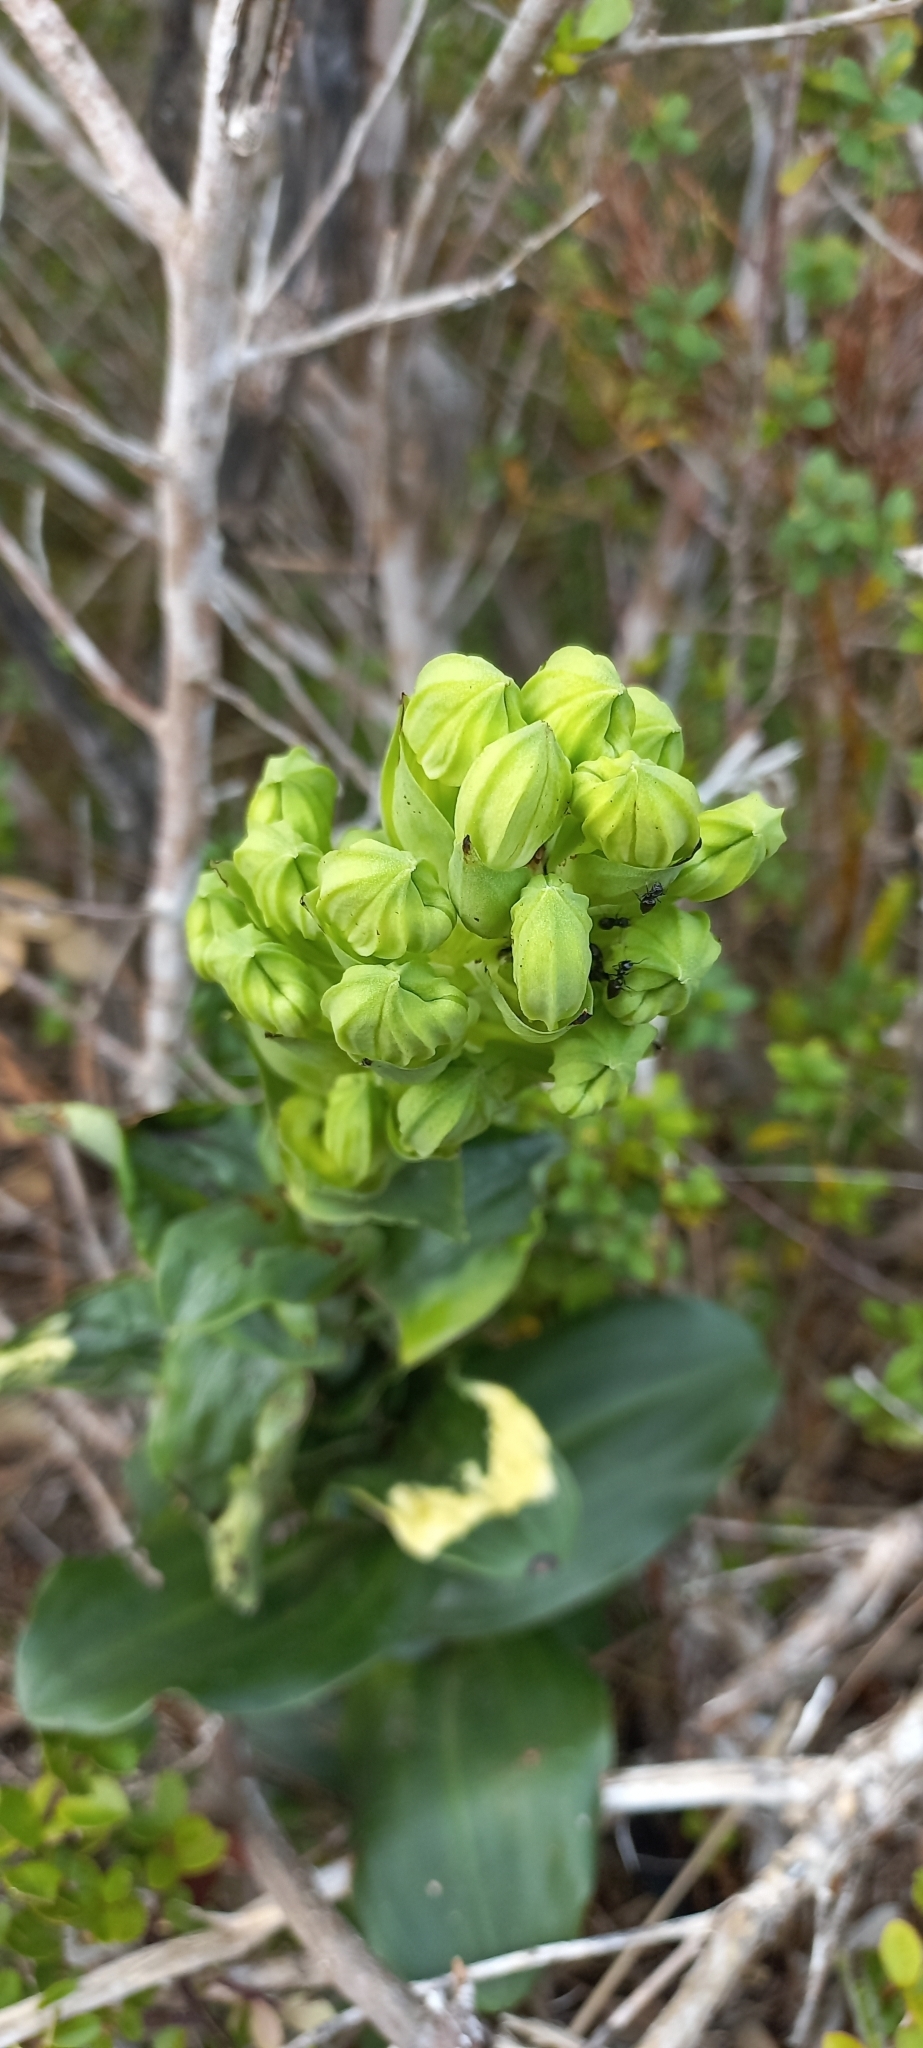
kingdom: Plantae
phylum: Tracheophyta
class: Liliopsida
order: Asparagales
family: Orchidaceae
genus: Bonatea
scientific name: Bonatea speciosa
